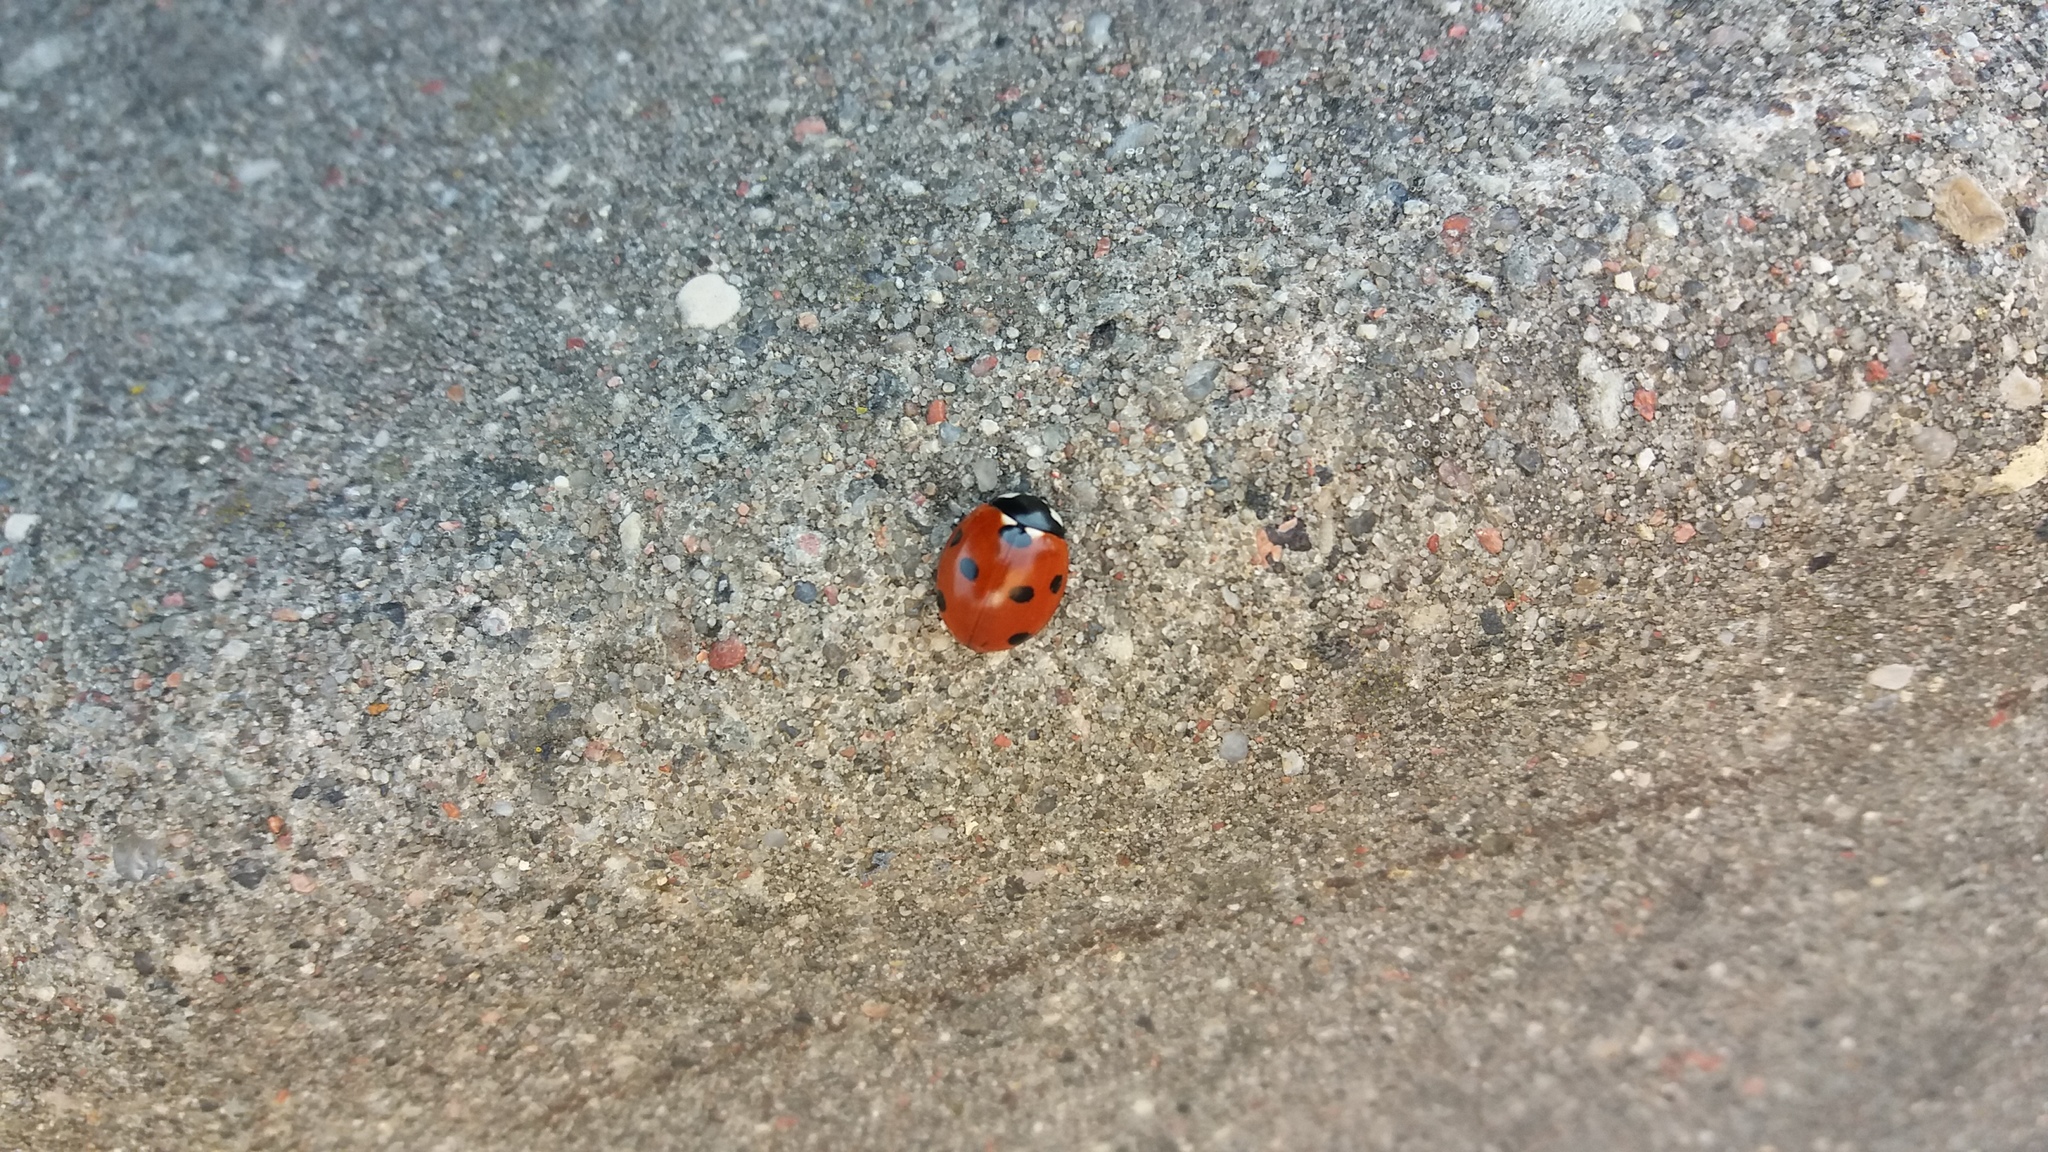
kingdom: Animalia
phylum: Arthropoda
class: Insecta
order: Coleoptera
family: Coccinellidae
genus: Coccinella
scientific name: Coccinella septempunctata
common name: Sevenspotted lady beetle
